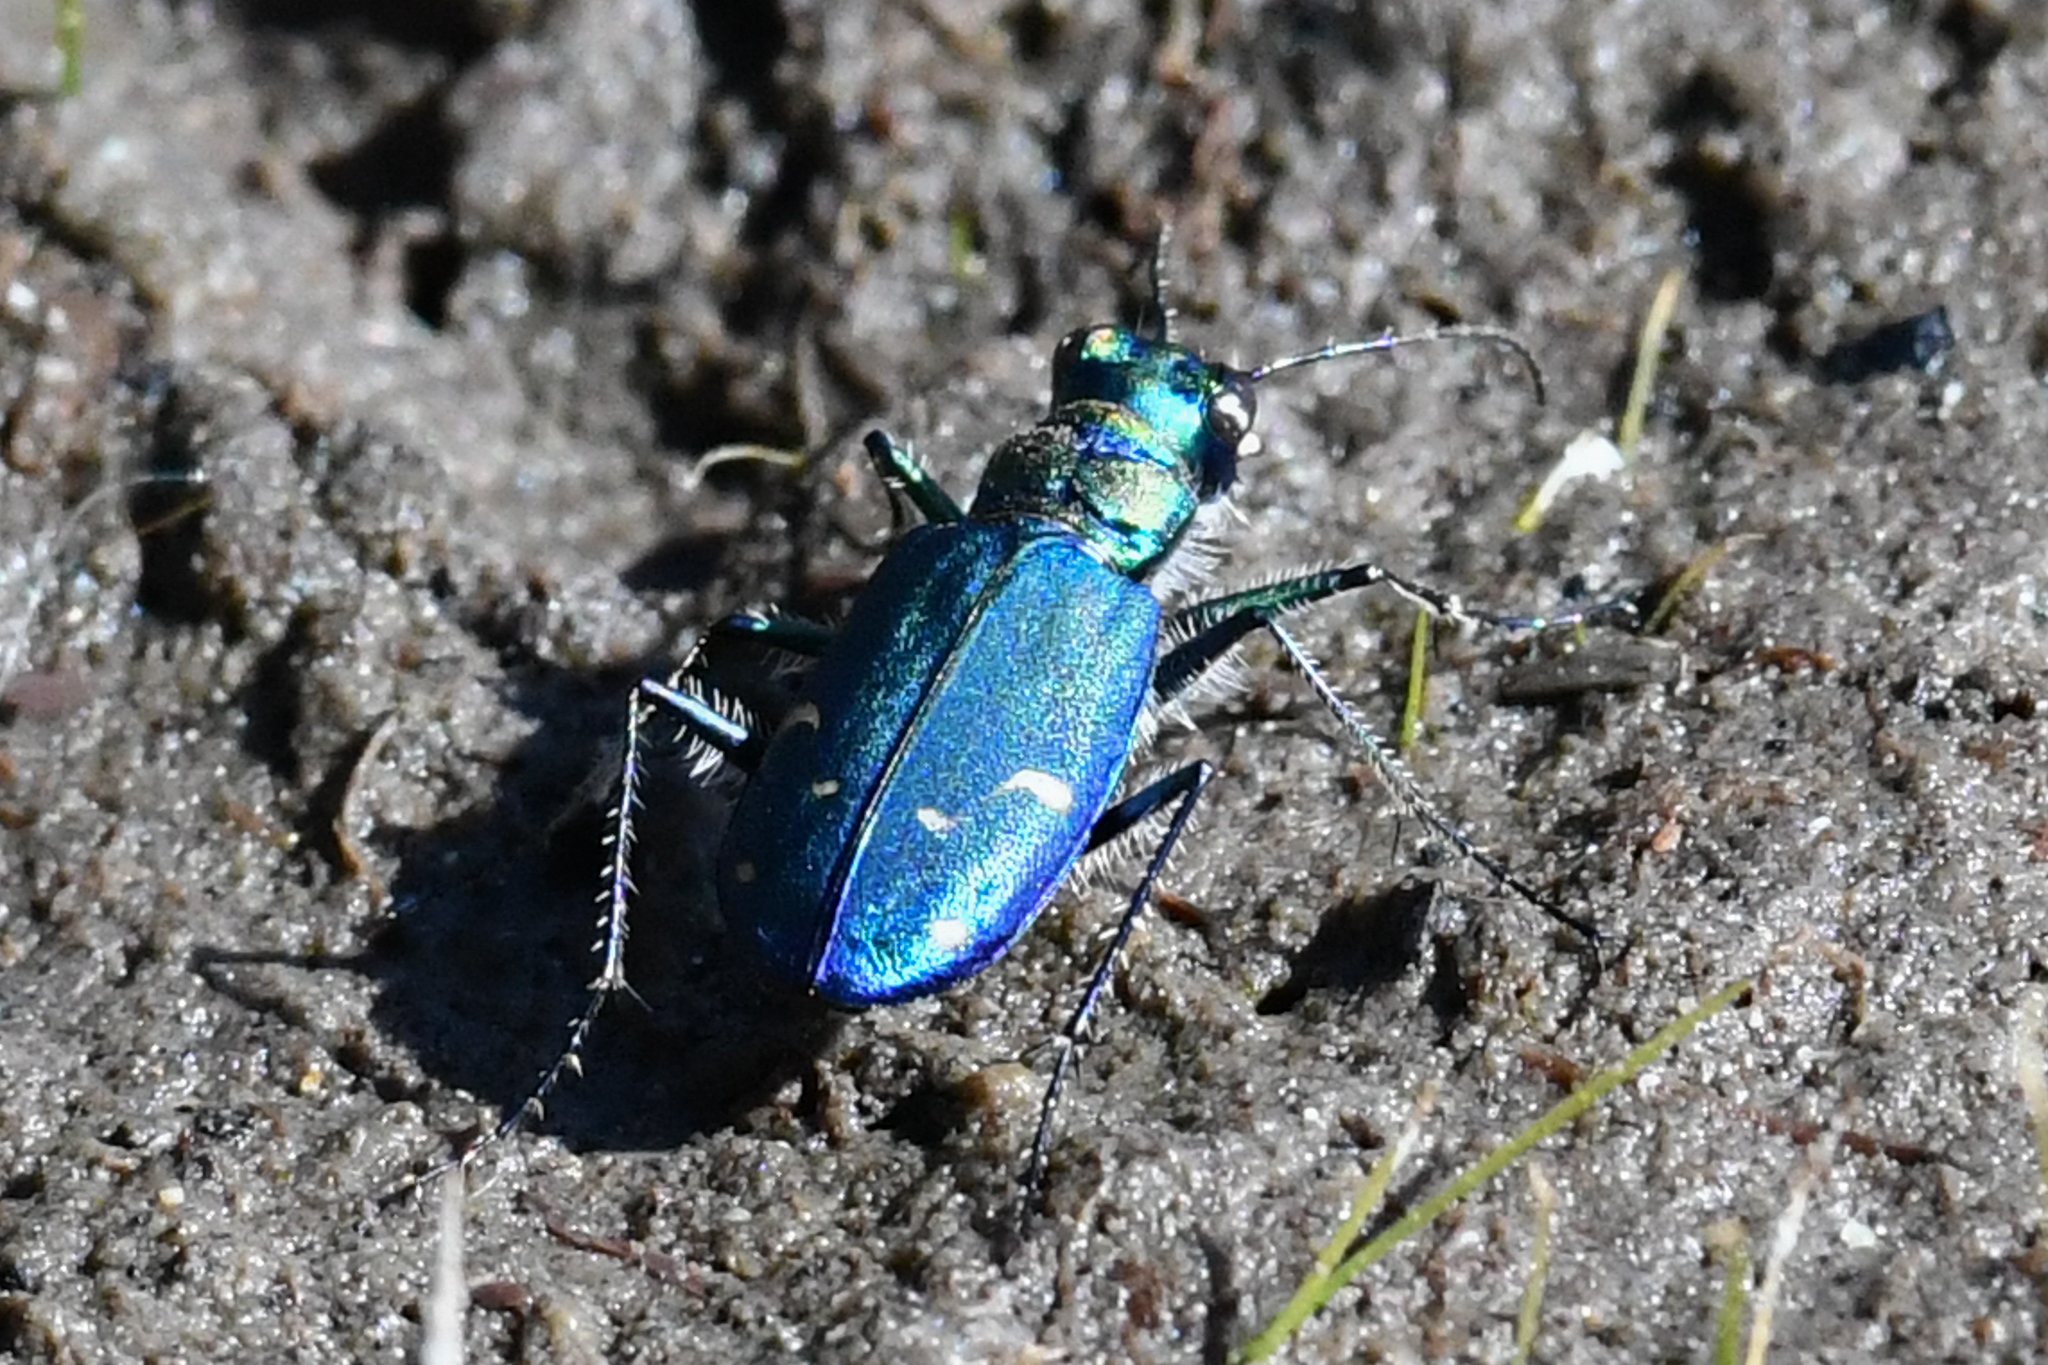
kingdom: Animalia
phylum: Arthropoda
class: Insecta
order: Coleoptera
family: Carabidae
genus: Cicindela
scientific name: Cicindela depressula
